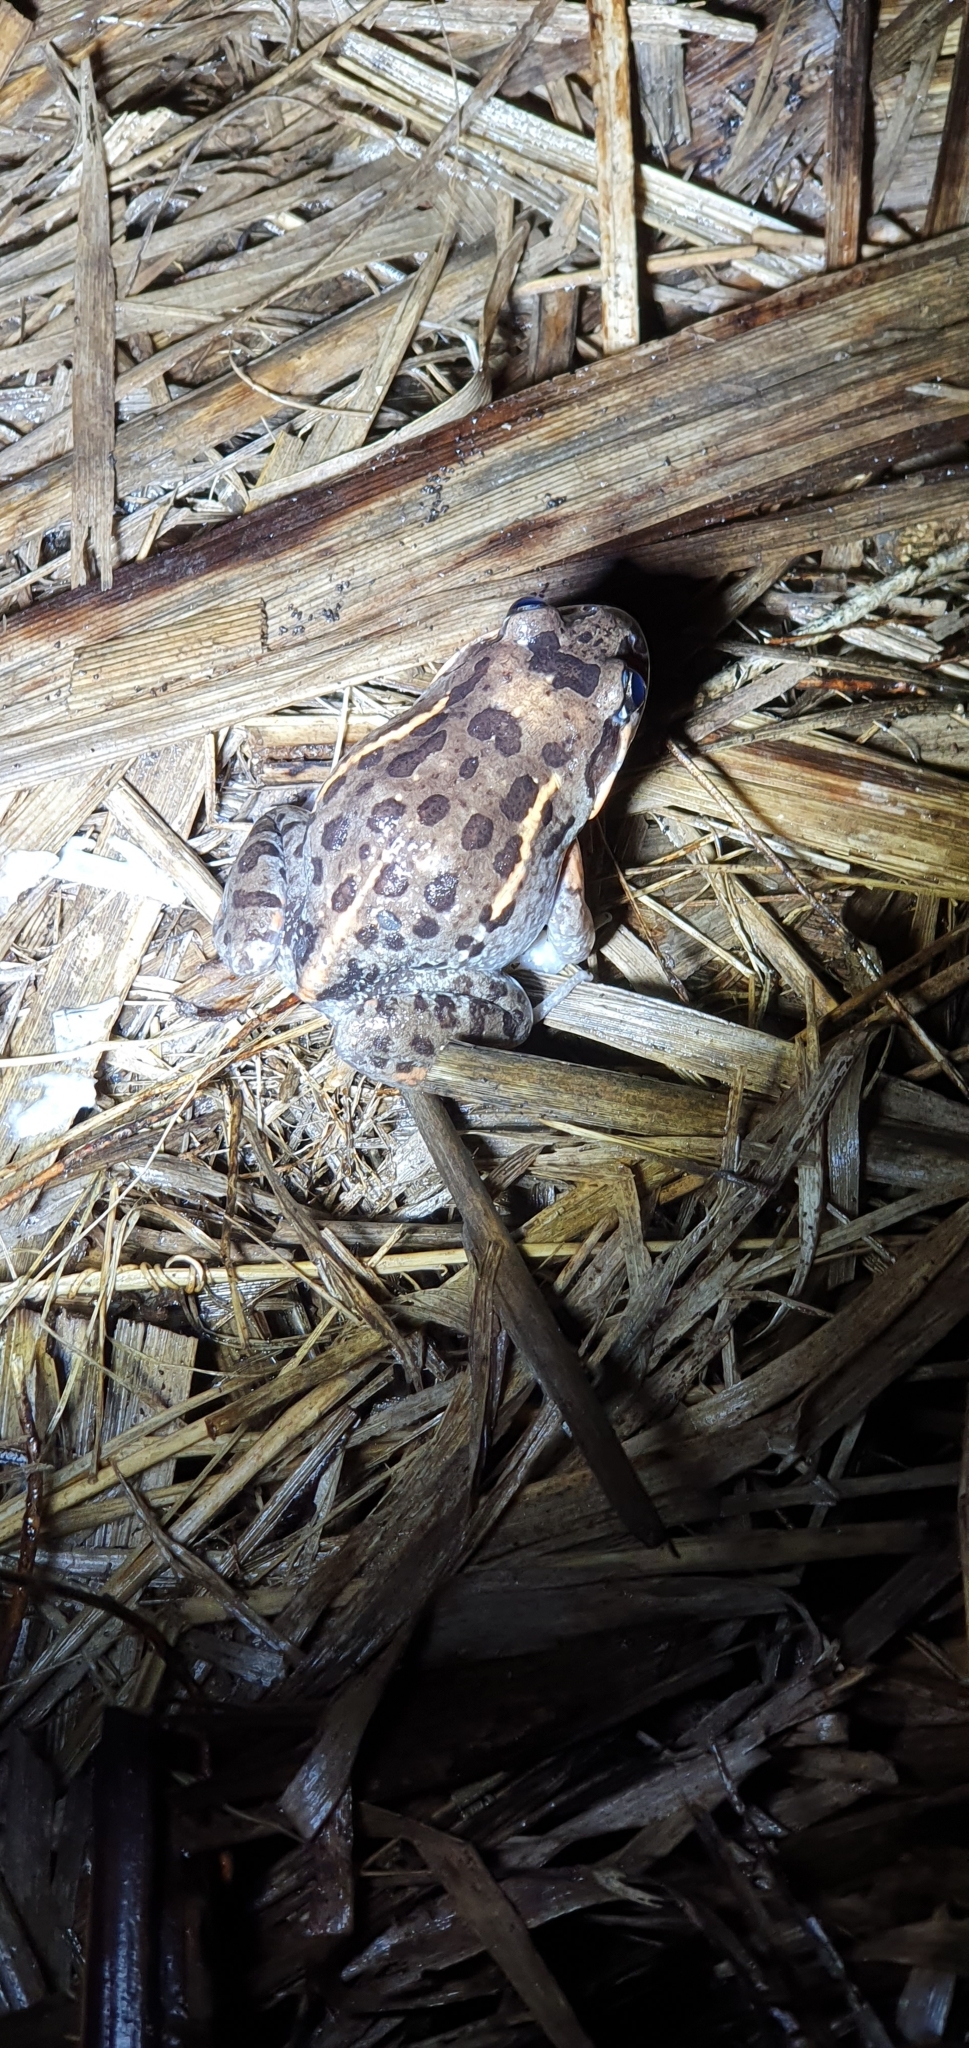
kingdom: Animalia
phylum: Chordata
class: Amphibia
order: Anura
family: Limnodynastidae
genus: Limnodynastes
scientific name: Limnodynastes salmini
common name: Salmon-striped frog
